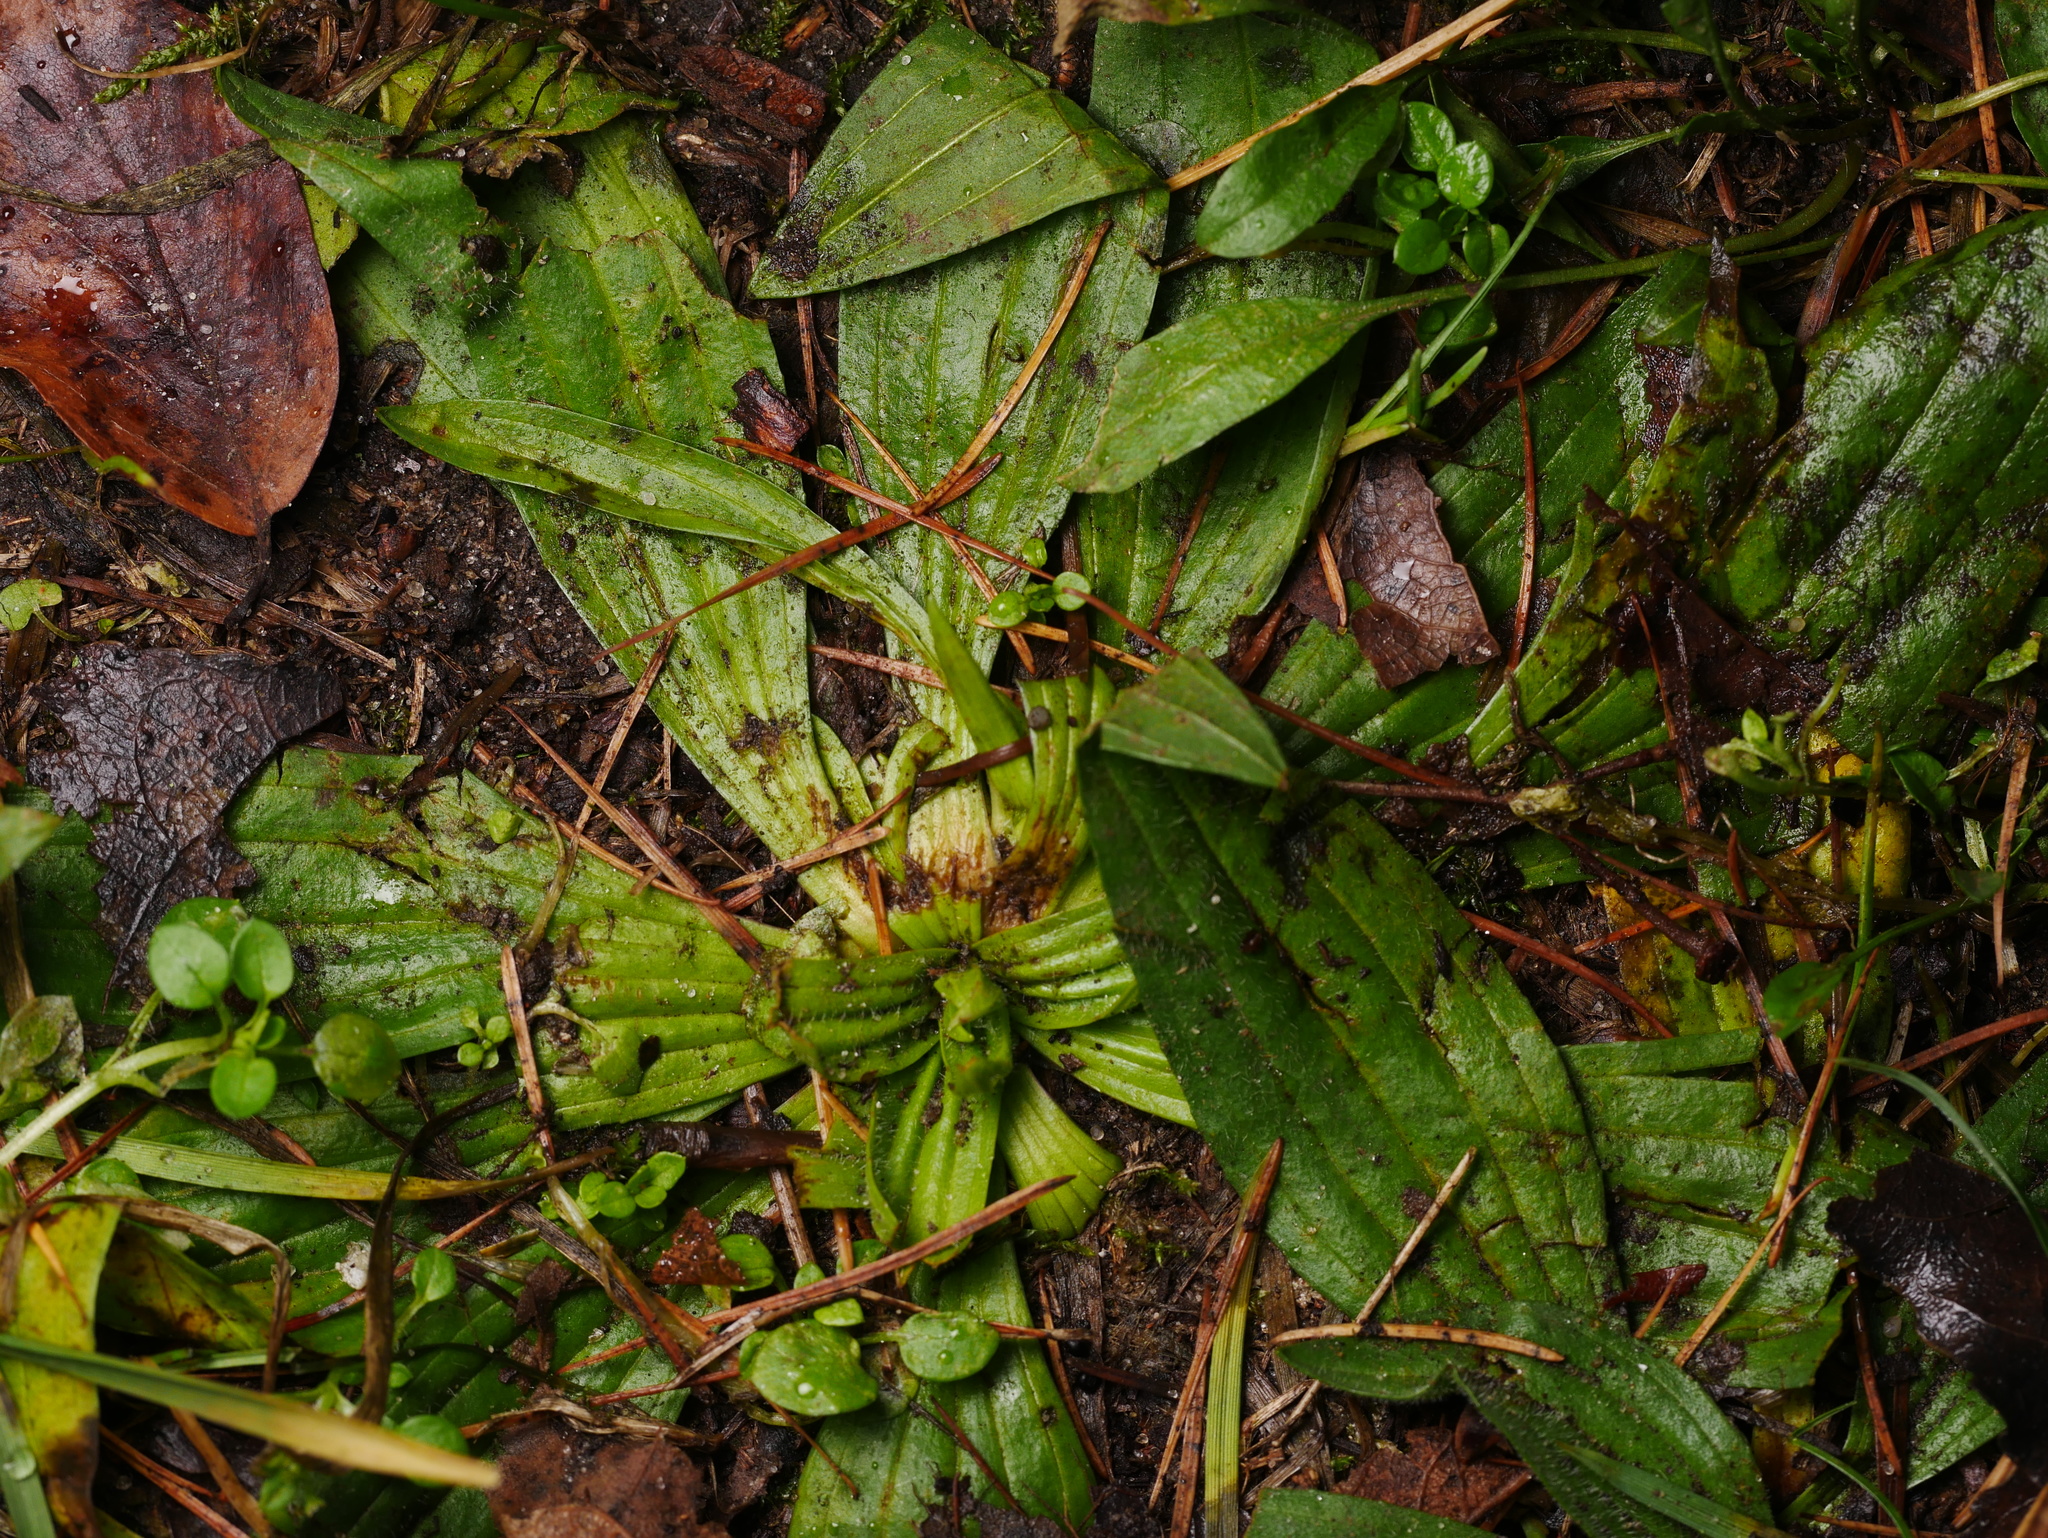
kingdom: Plantae
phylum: Tracheophyta
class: Magnoliopsida
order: Lamiales
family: Plantaginaceae
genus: Plantago
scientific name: Plantago lanceolata
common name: Ribwort plantain
